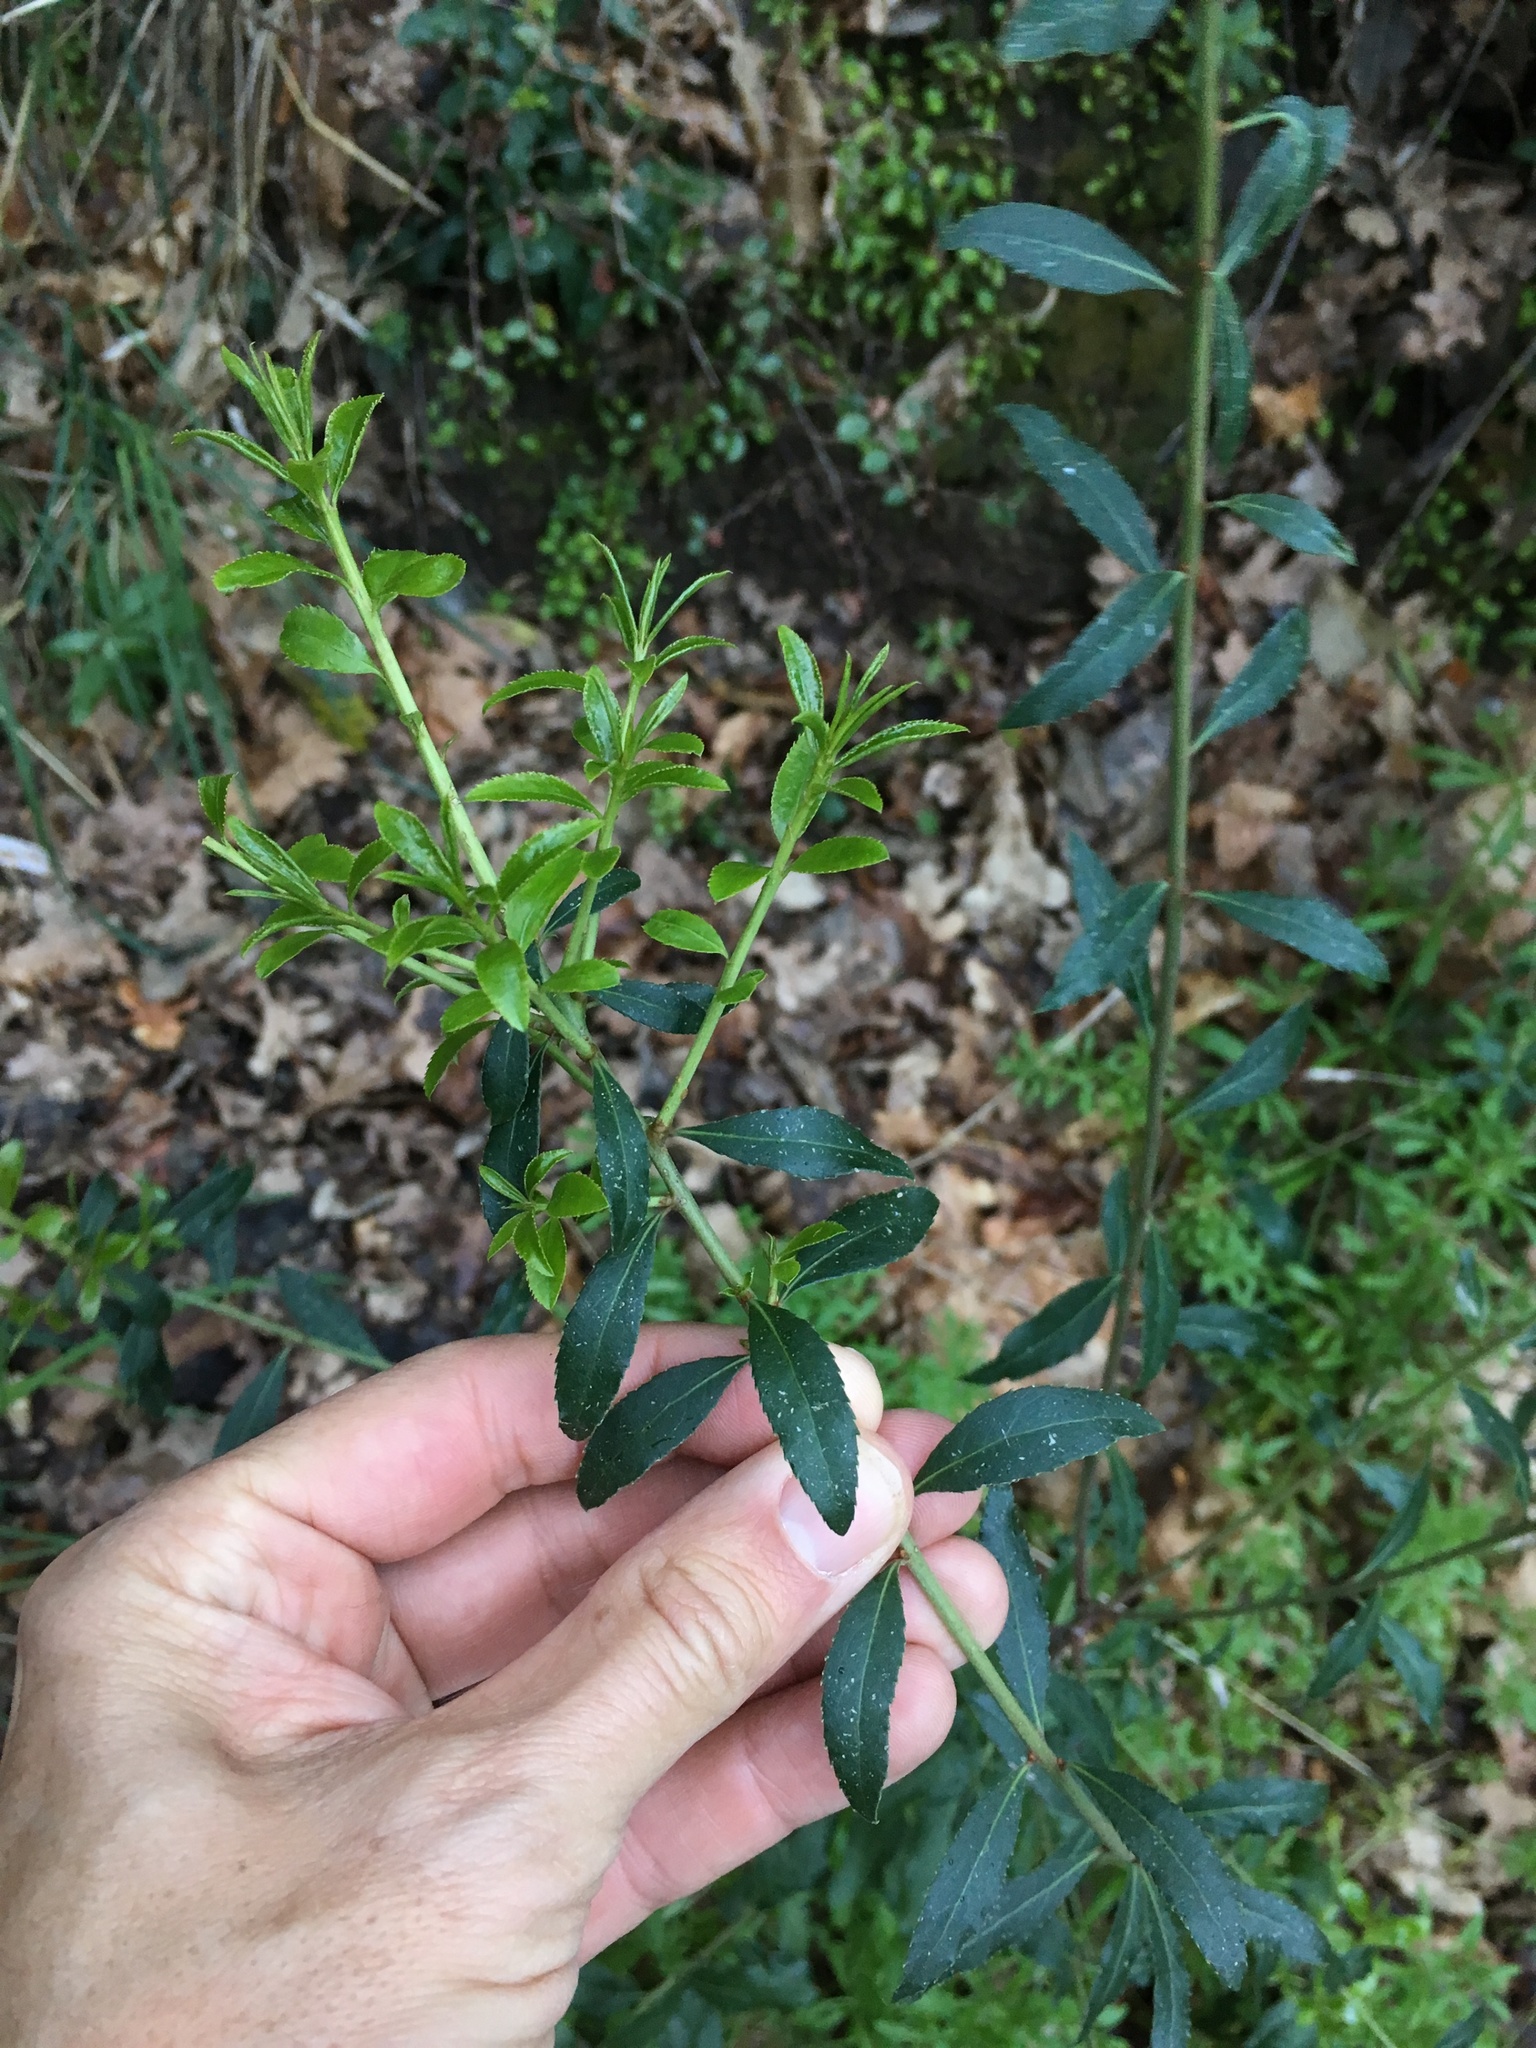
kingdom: Plantae
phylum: Tracheophyta
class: Magnoliopsida
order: Celastrales
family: Celastraceae
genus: Maytenus
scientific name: Maytenus boaria
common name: Mayten
